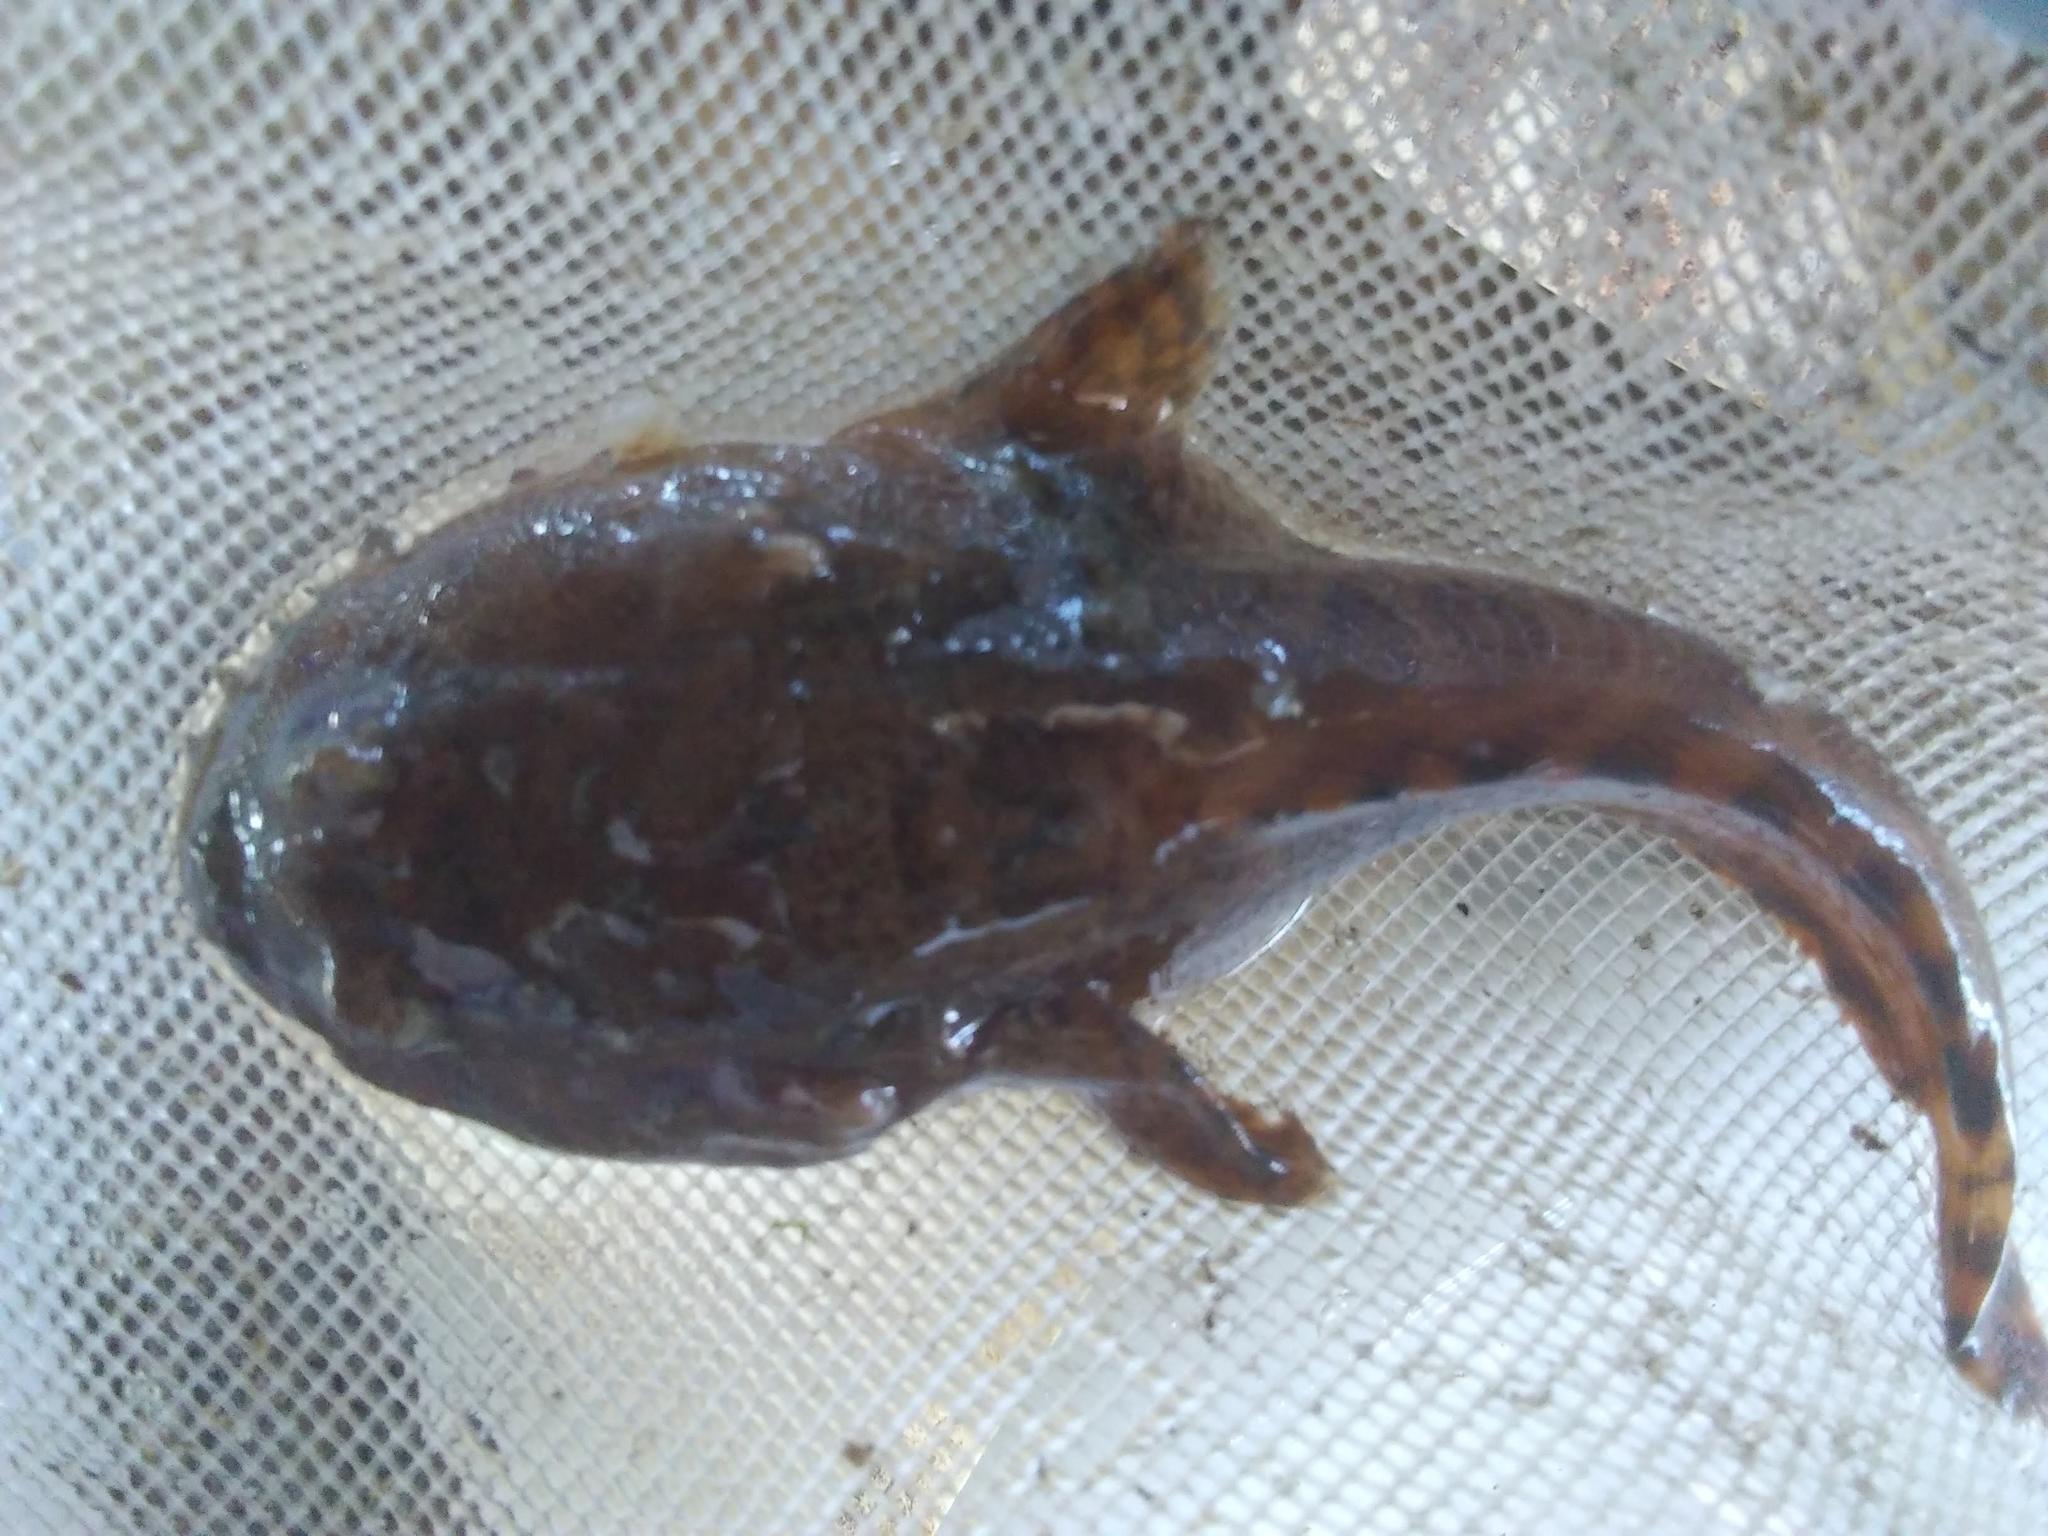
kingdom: Animalia
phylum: Chordata
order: Batrachoidiformes
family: Batrachoididae
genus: Opsanus
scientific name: Opsanus tau
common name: Oyster toadfish
